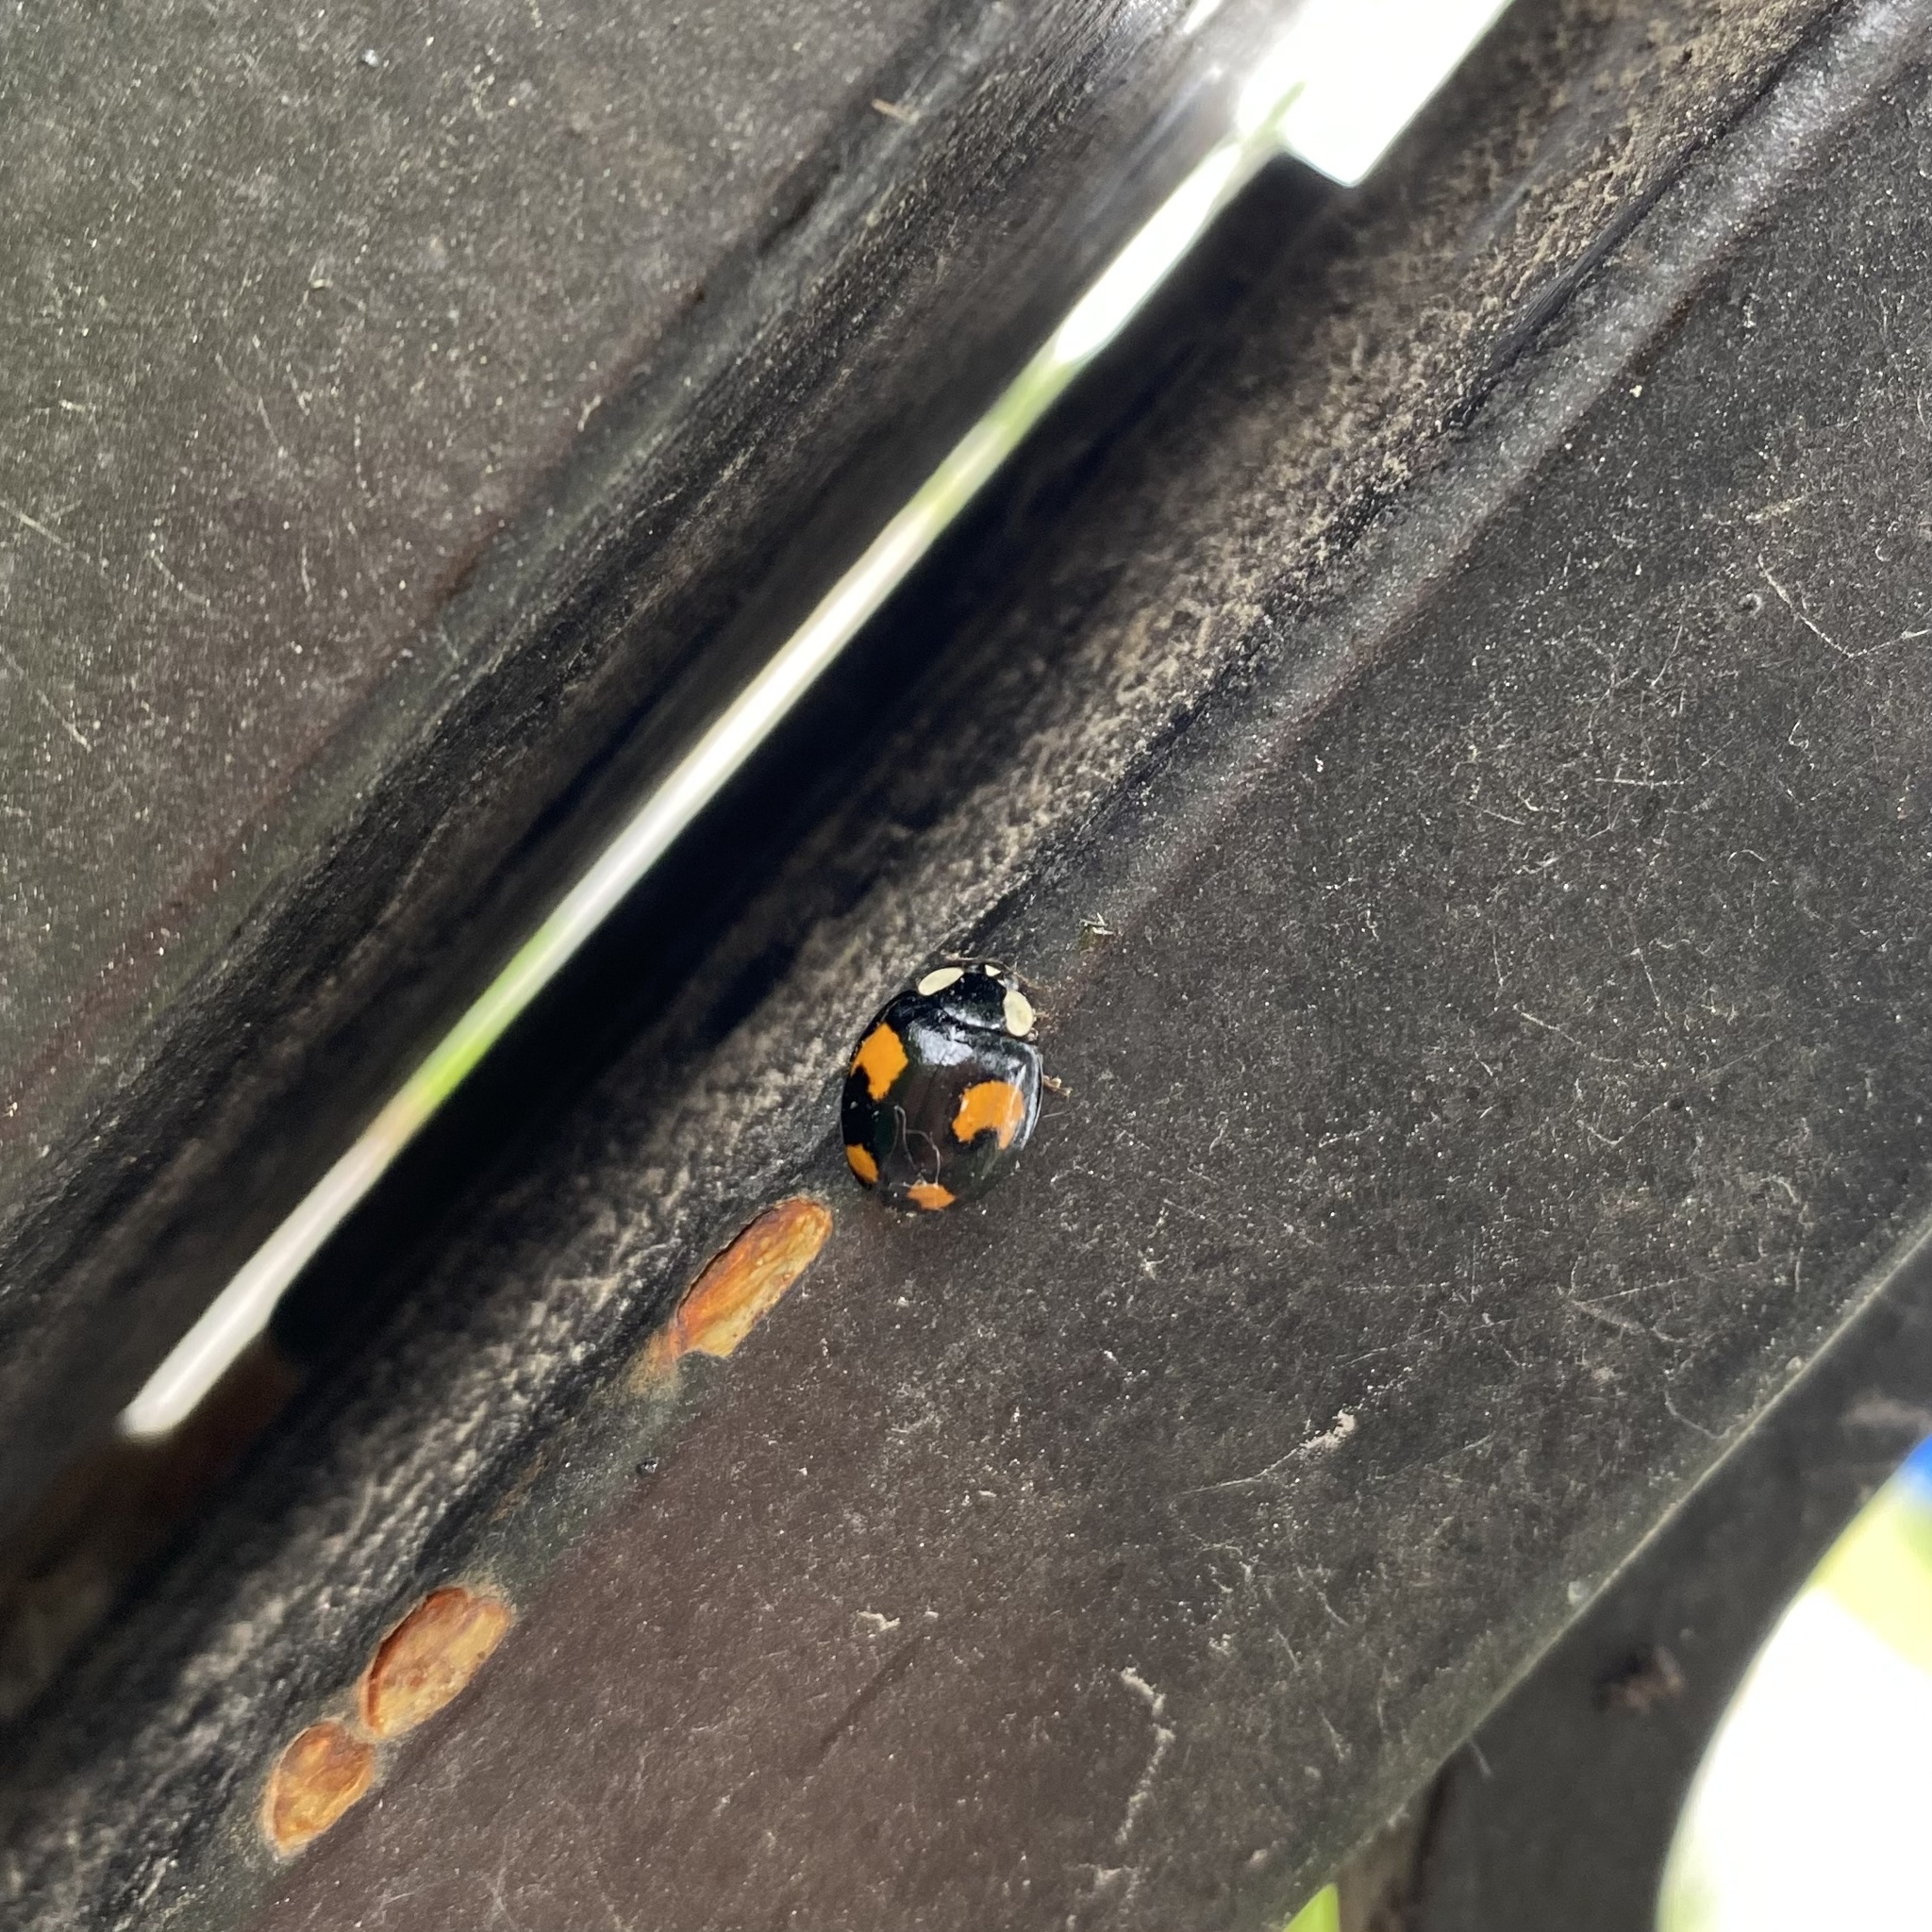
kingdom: Animalia
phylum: Arthropoda
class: Insecta
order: Coleoptera
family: Coccinellidae
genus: Harmonia
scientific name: Harmonia axyridis
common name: Harlequin ladybird
